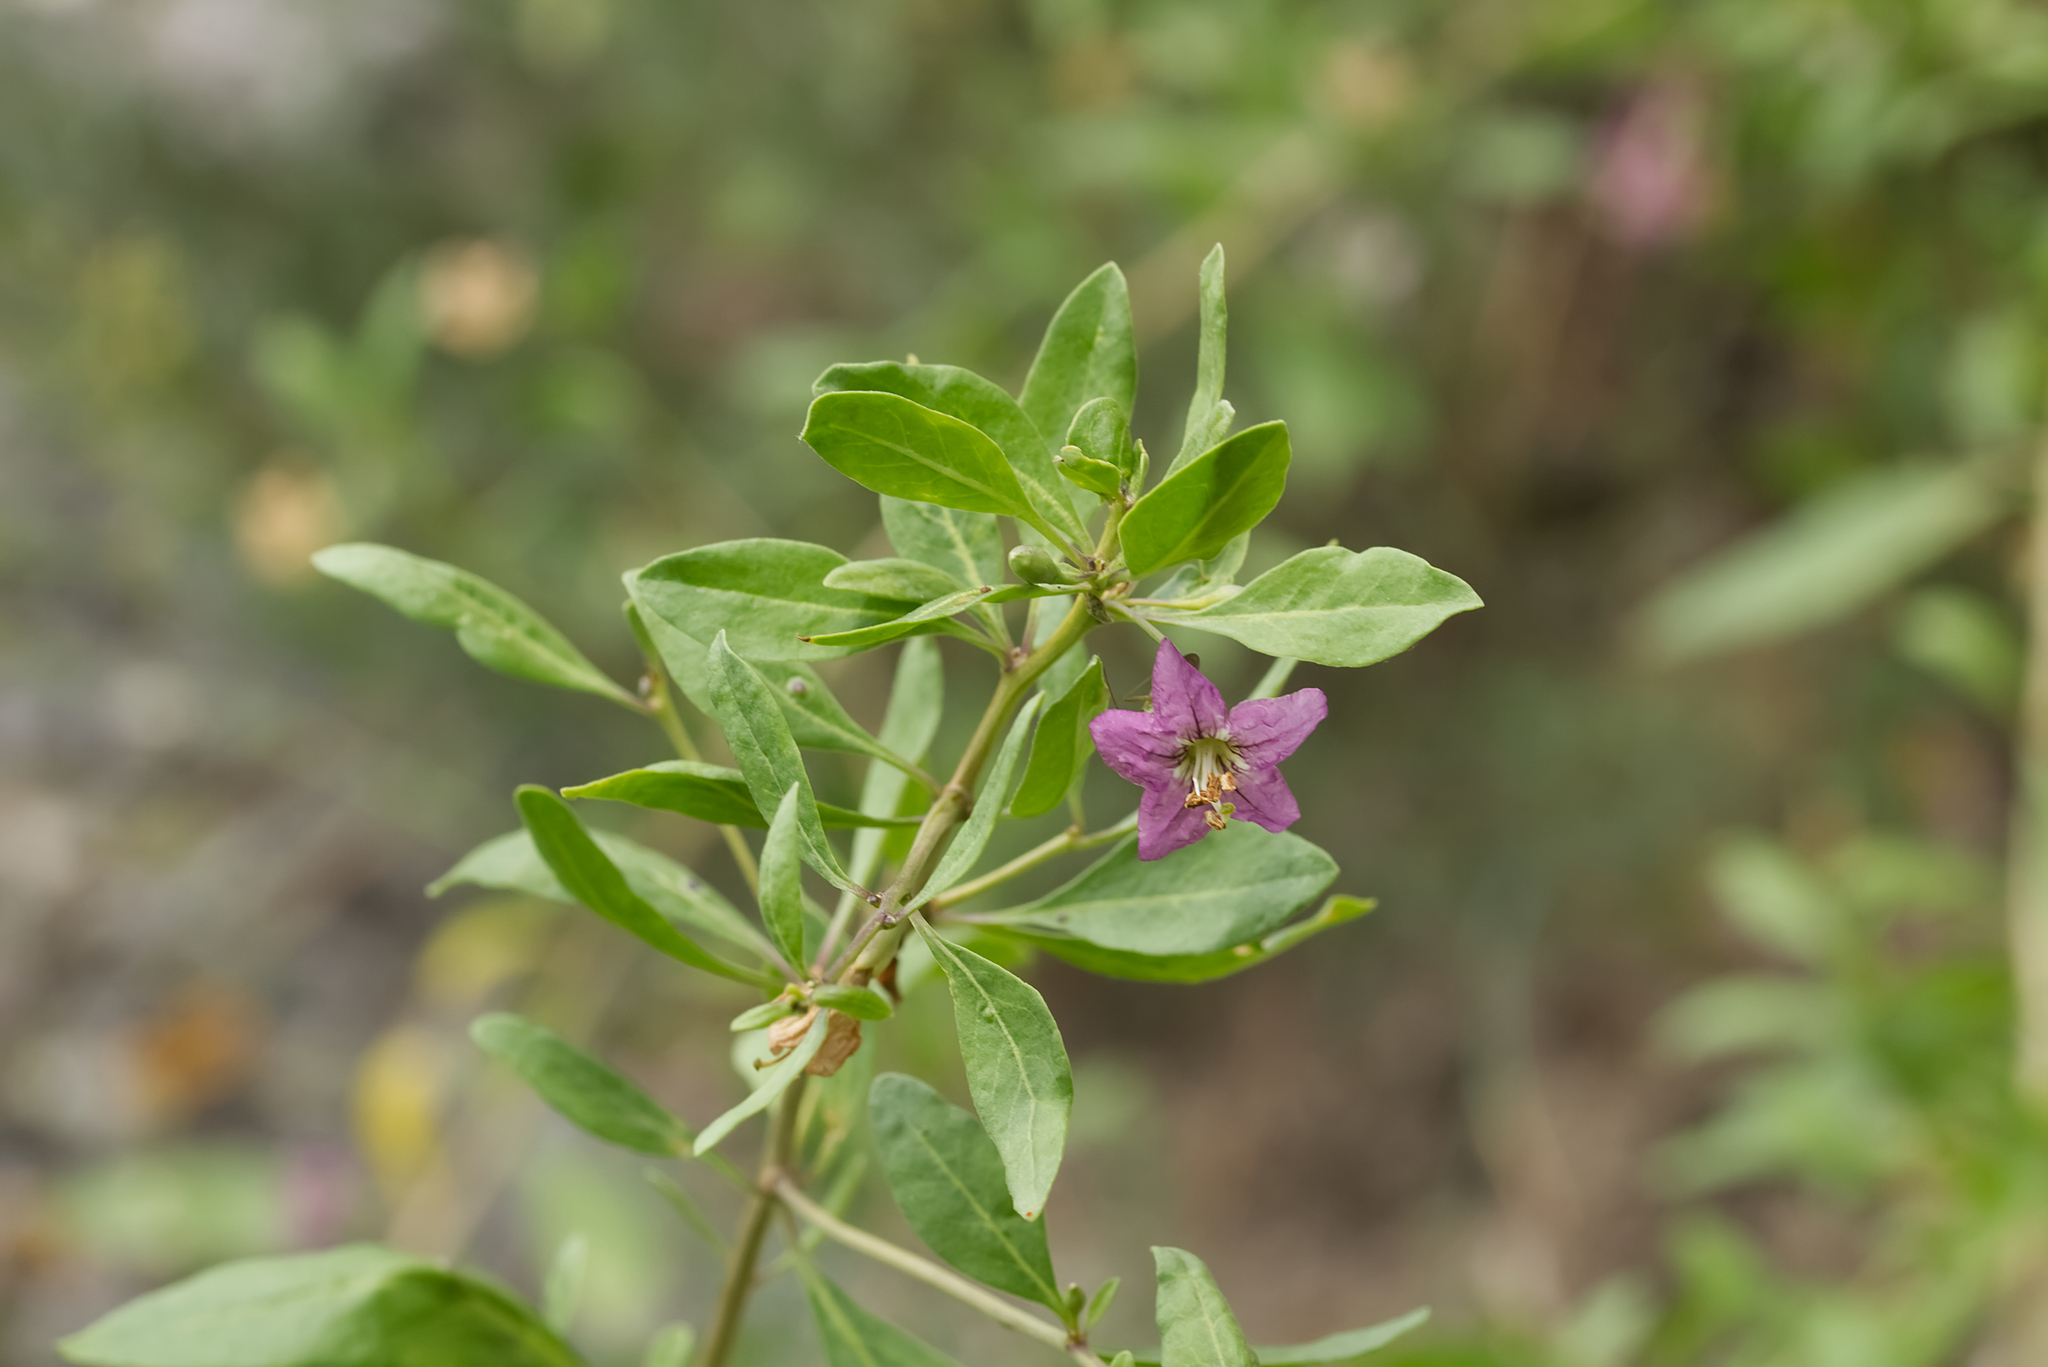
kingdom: Plantae
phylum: Tracheophyta
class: Magnoliopsida
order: Solanales
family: Solanaceae
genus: Lycium
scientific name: Lycium barbarum
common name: Duke of argyll's teaplant
